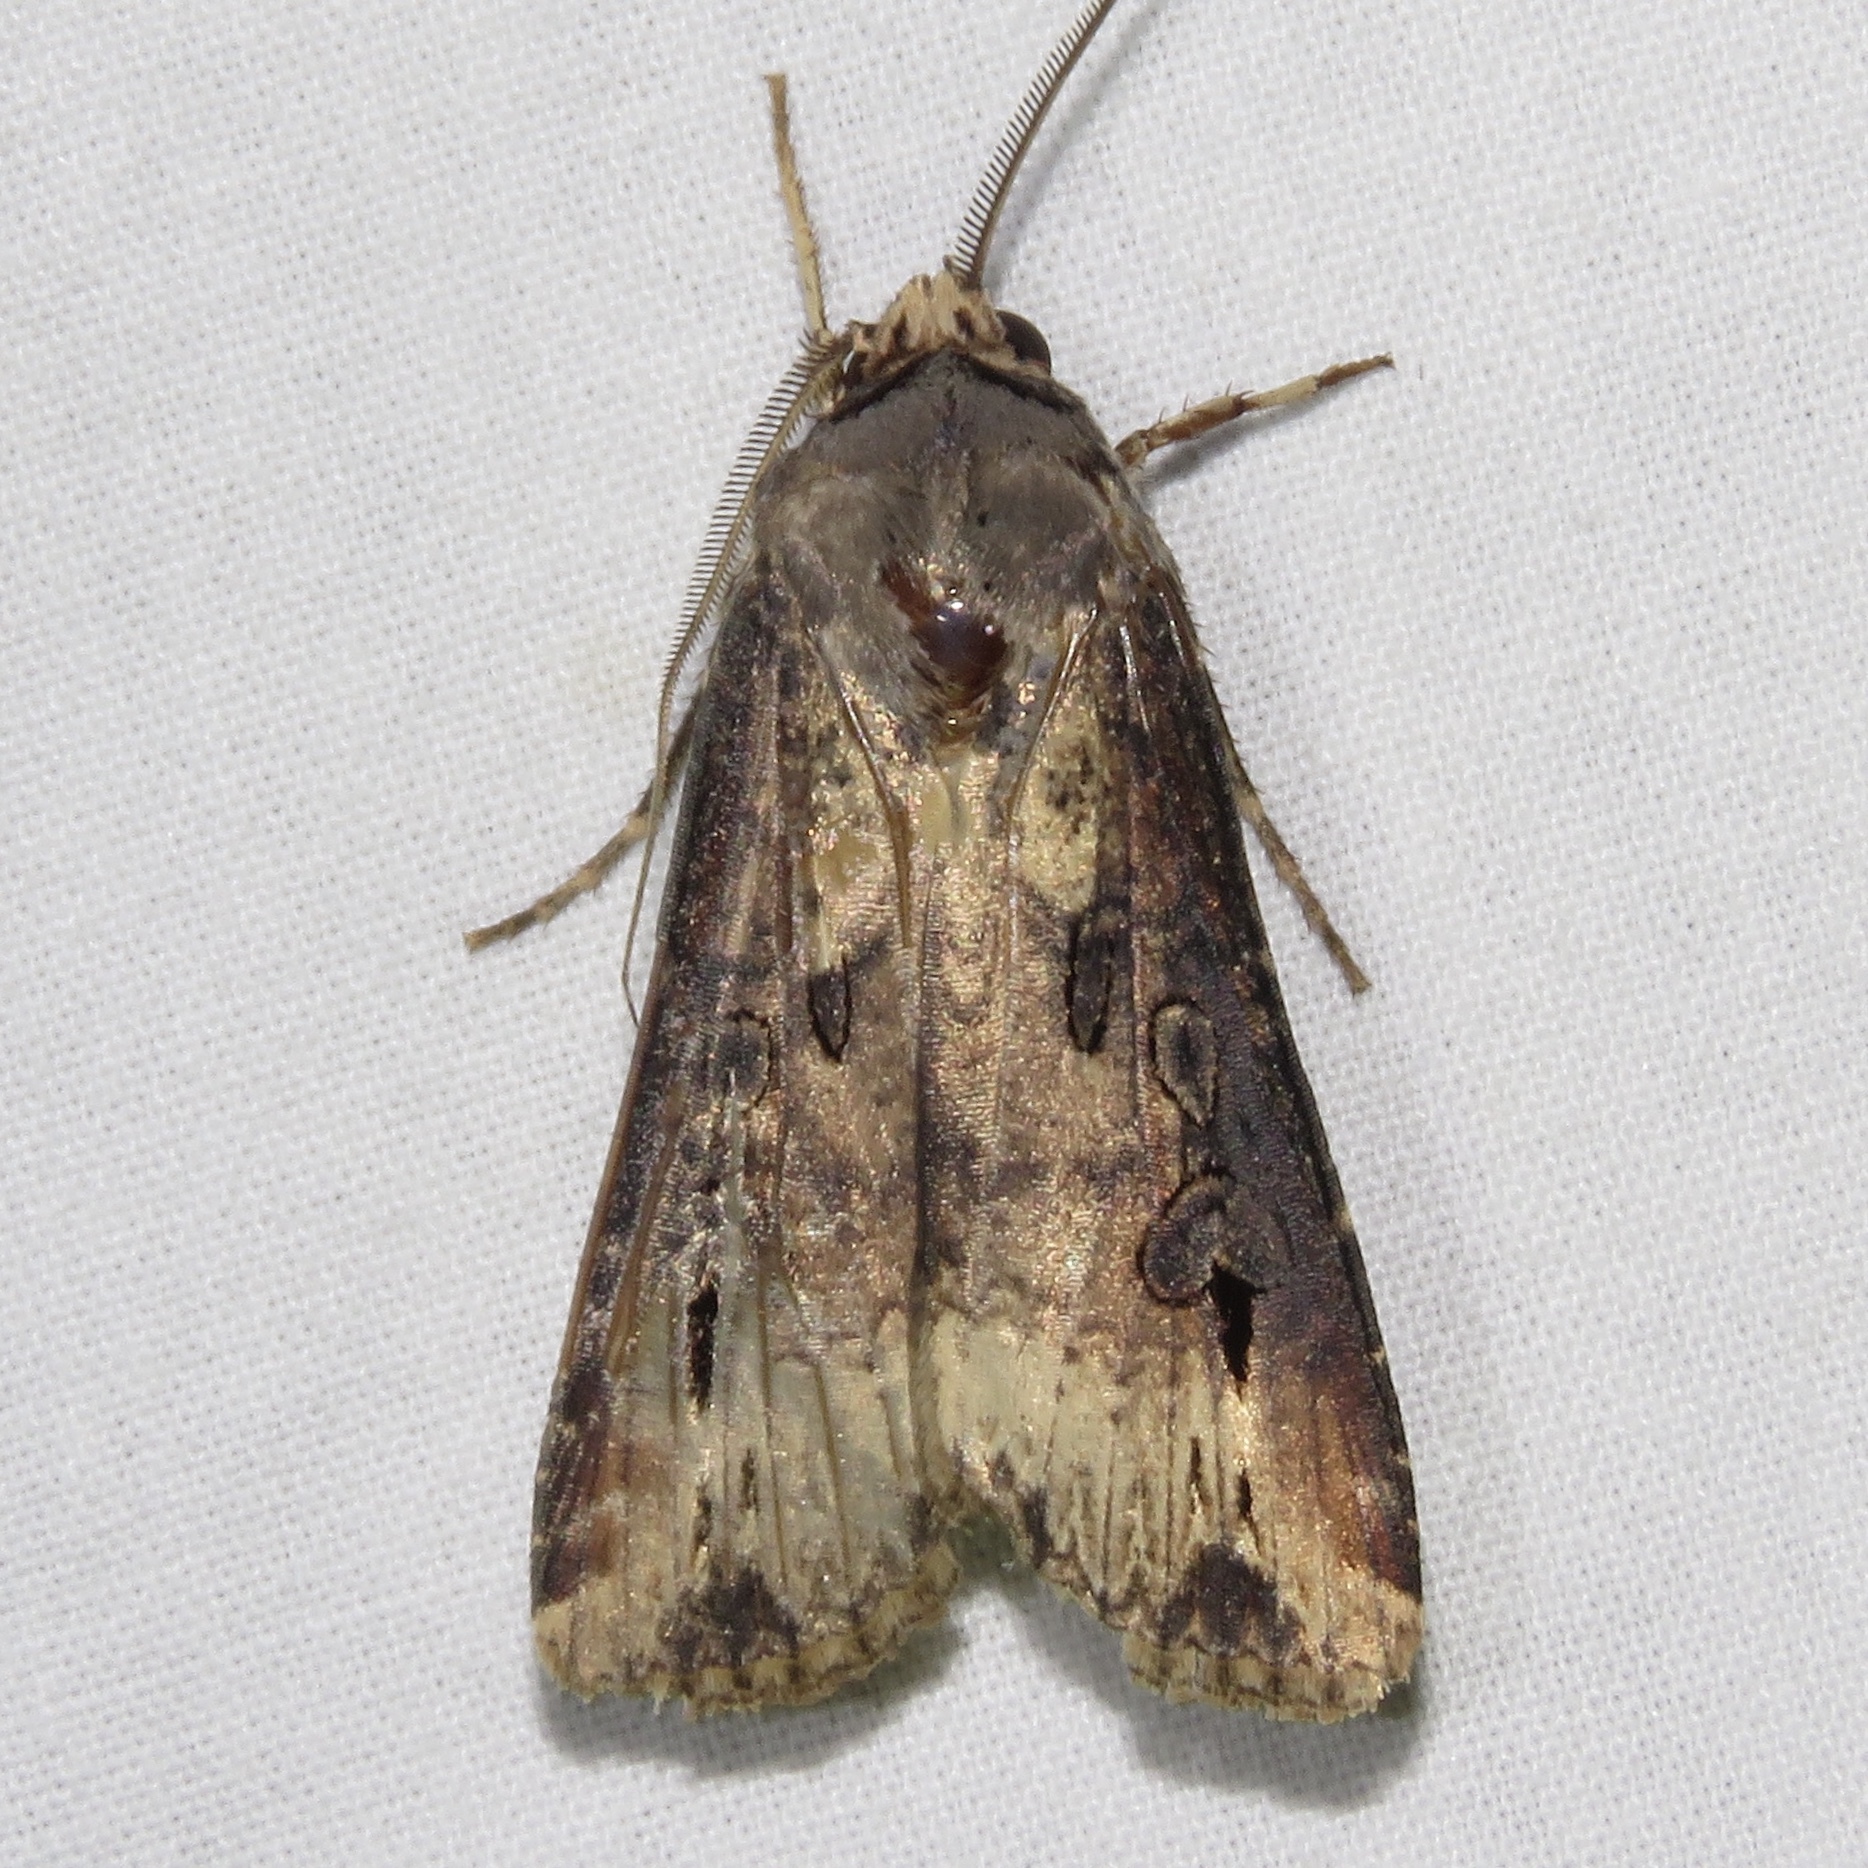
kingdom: Animalia
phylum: Arthropoda
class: Insecta
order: Lepidoptera
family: Noctuidae
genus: Agrotis
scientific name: Agrotis ipsilon
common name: Dark sword-grass
